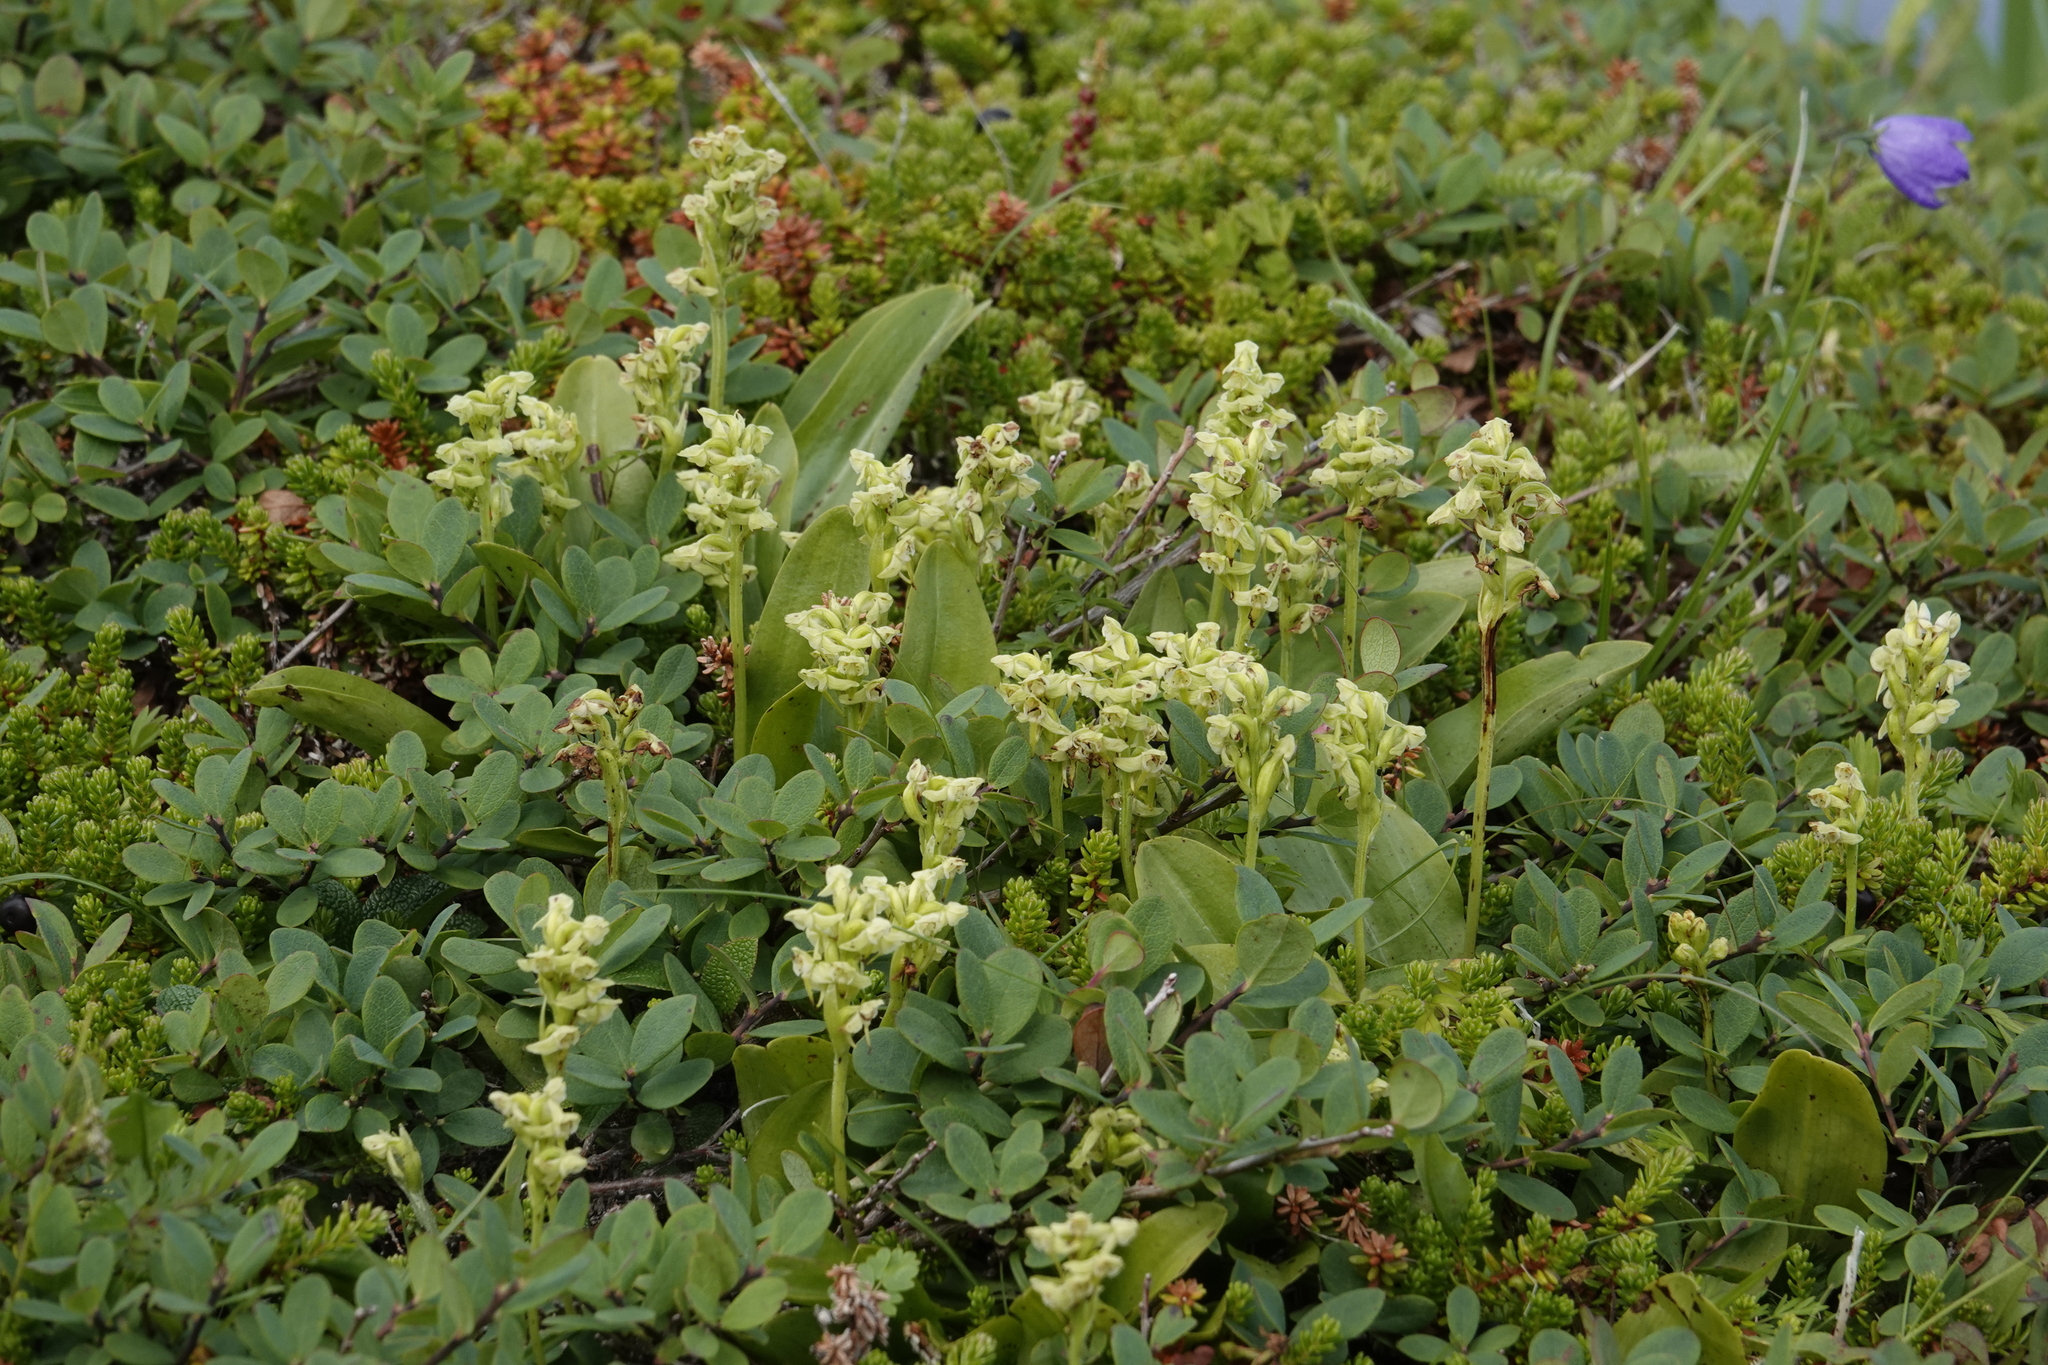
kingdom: Plantae
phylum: Tracheophyta
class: Liliopsida
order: Asparagales
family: Orchidaceae
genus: Platanthera
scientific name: Platanthera obtusata
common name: Blunt bog orchid
